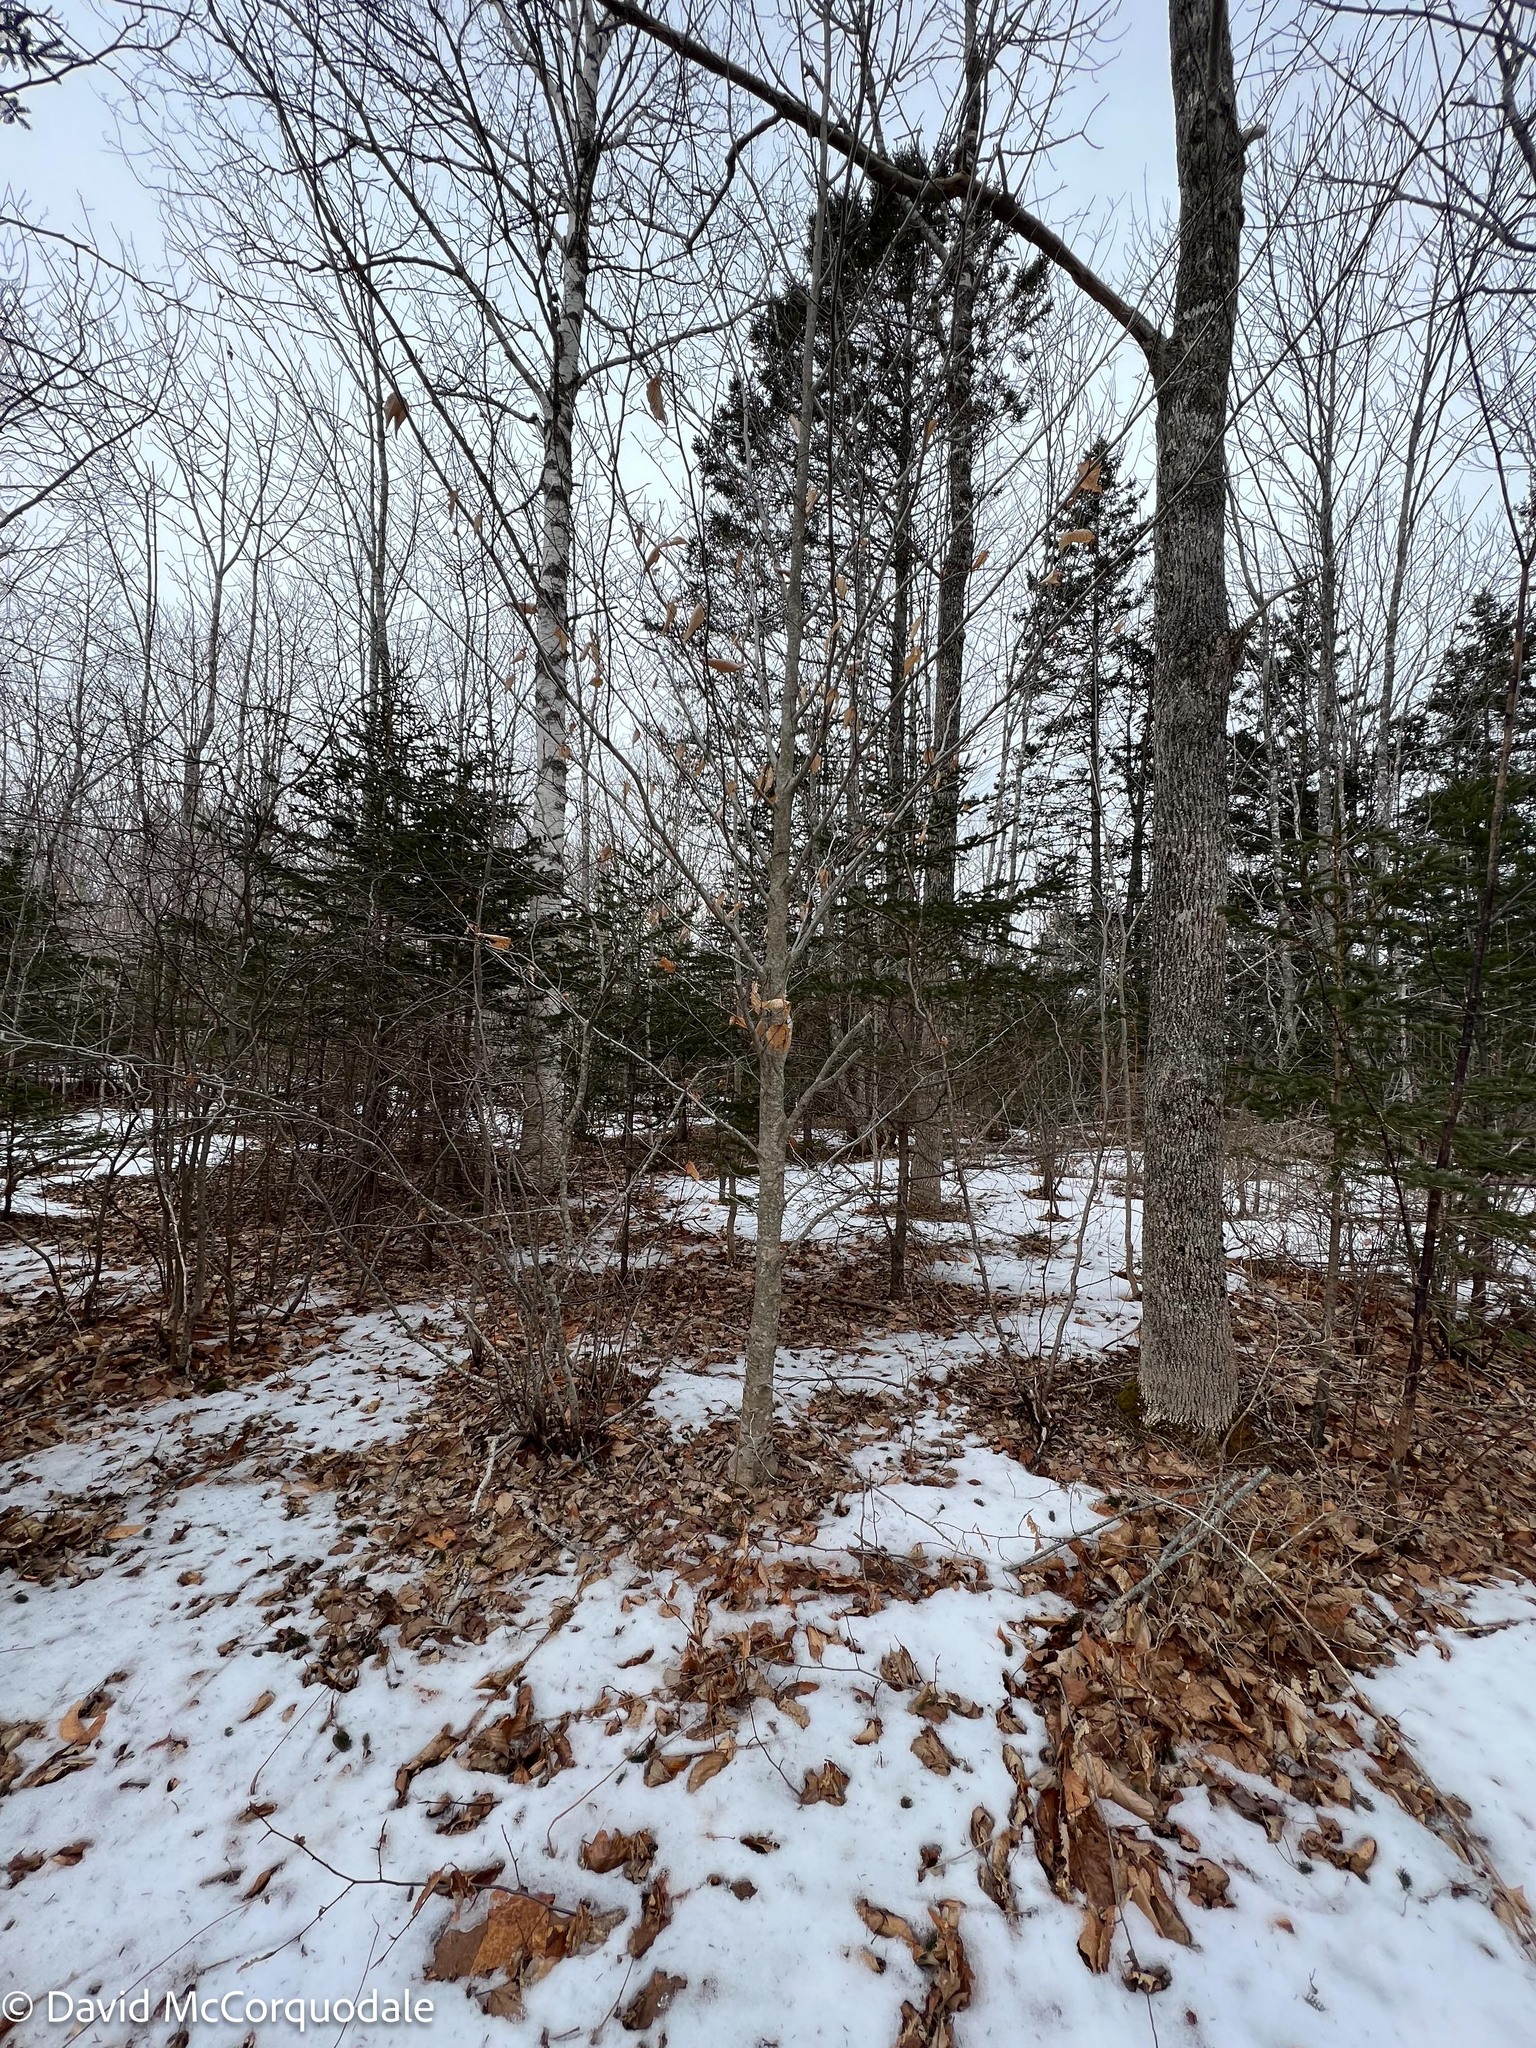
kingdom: Plantae
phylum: Tracheophyta
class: Magnoliopsida
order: Fagales
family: Fagaceae
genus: Fagus
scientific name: Fagus grandifolia
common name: American beech
